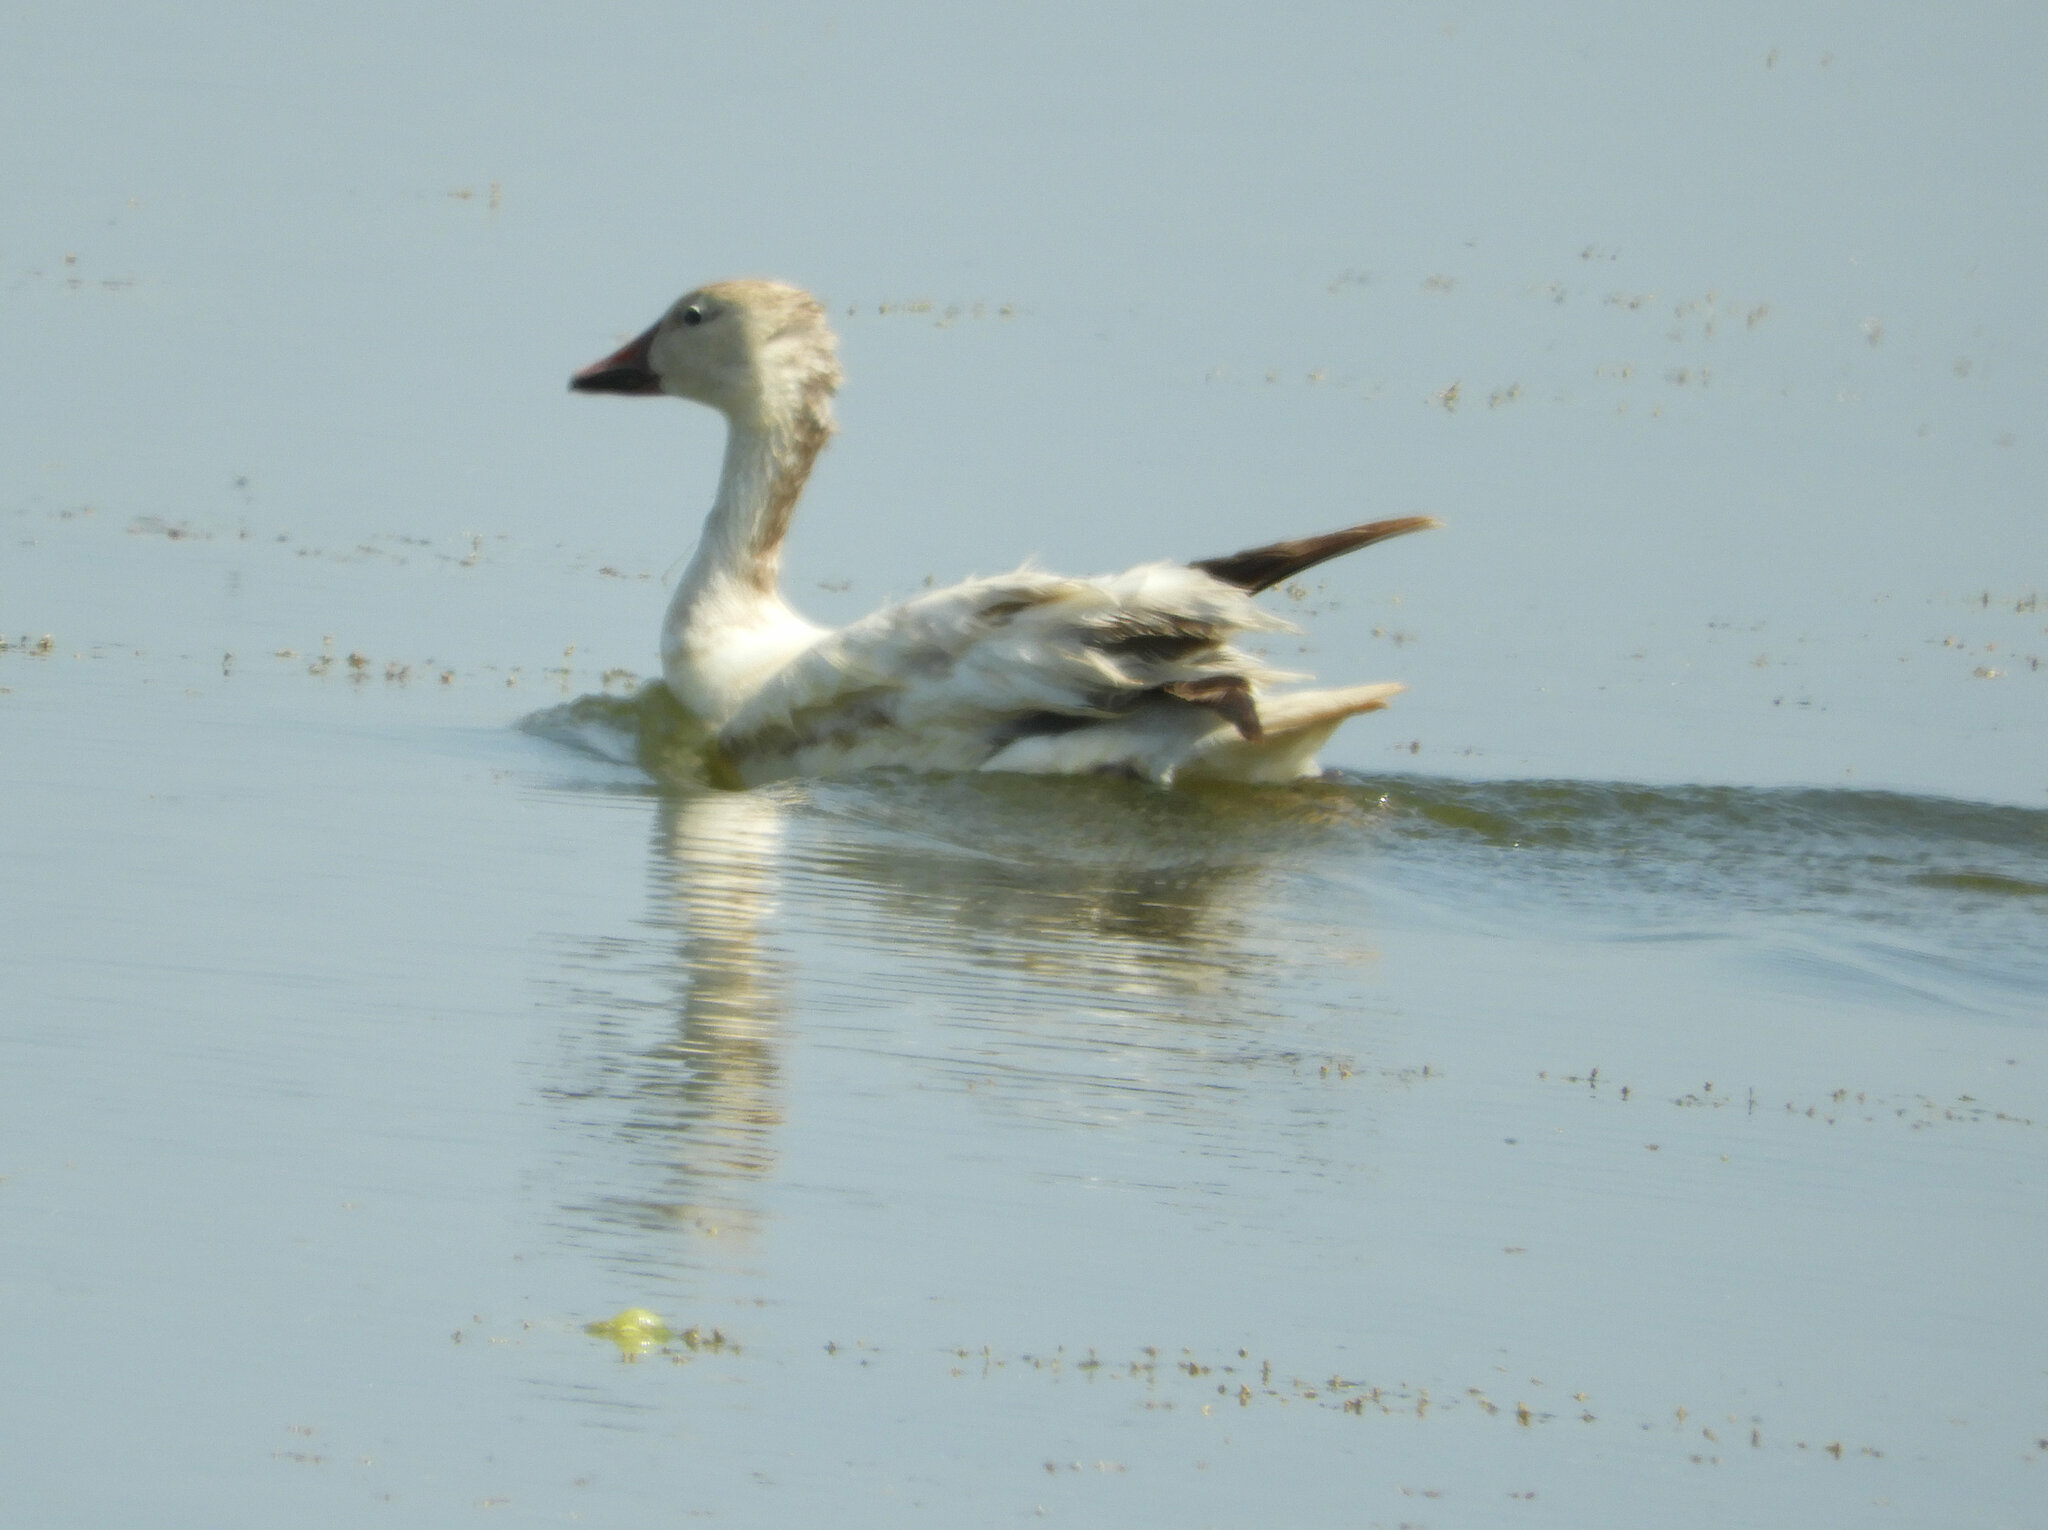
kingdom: Animalia
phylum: Chordata
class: Aves
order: Anseriformes
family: Anatidae
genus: Anser
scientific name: Anser caerulescens
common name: Snow goose
